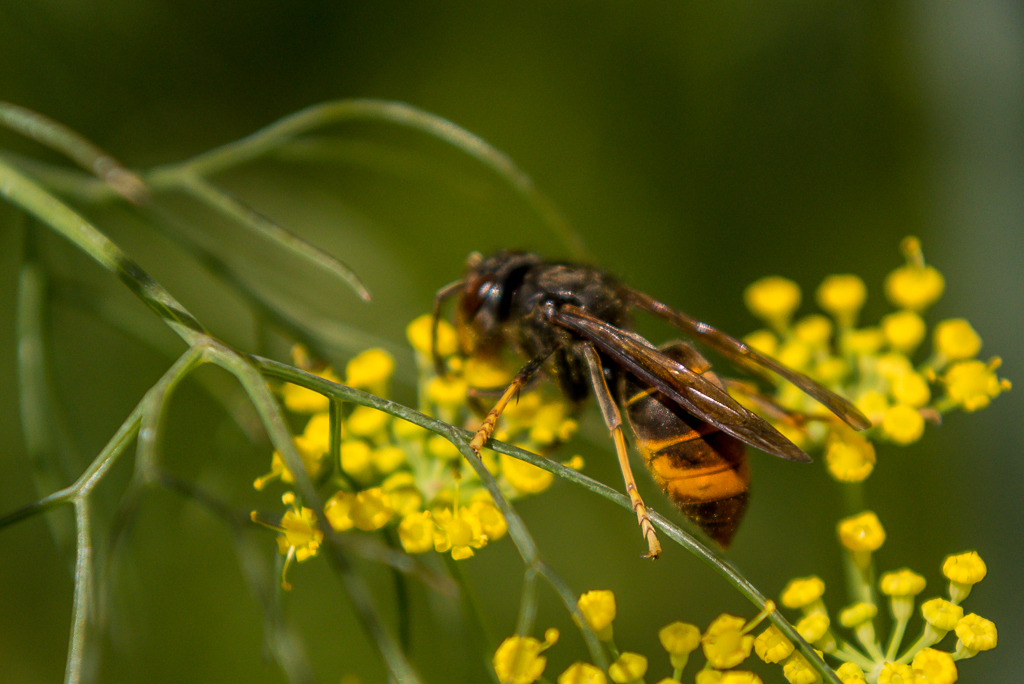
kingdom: Animalia
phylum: Arthropoda
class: Insecta
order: Hymenoptera
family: Vespidae
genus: Vespa
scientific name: Vespa velutina
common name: Asian hornet
